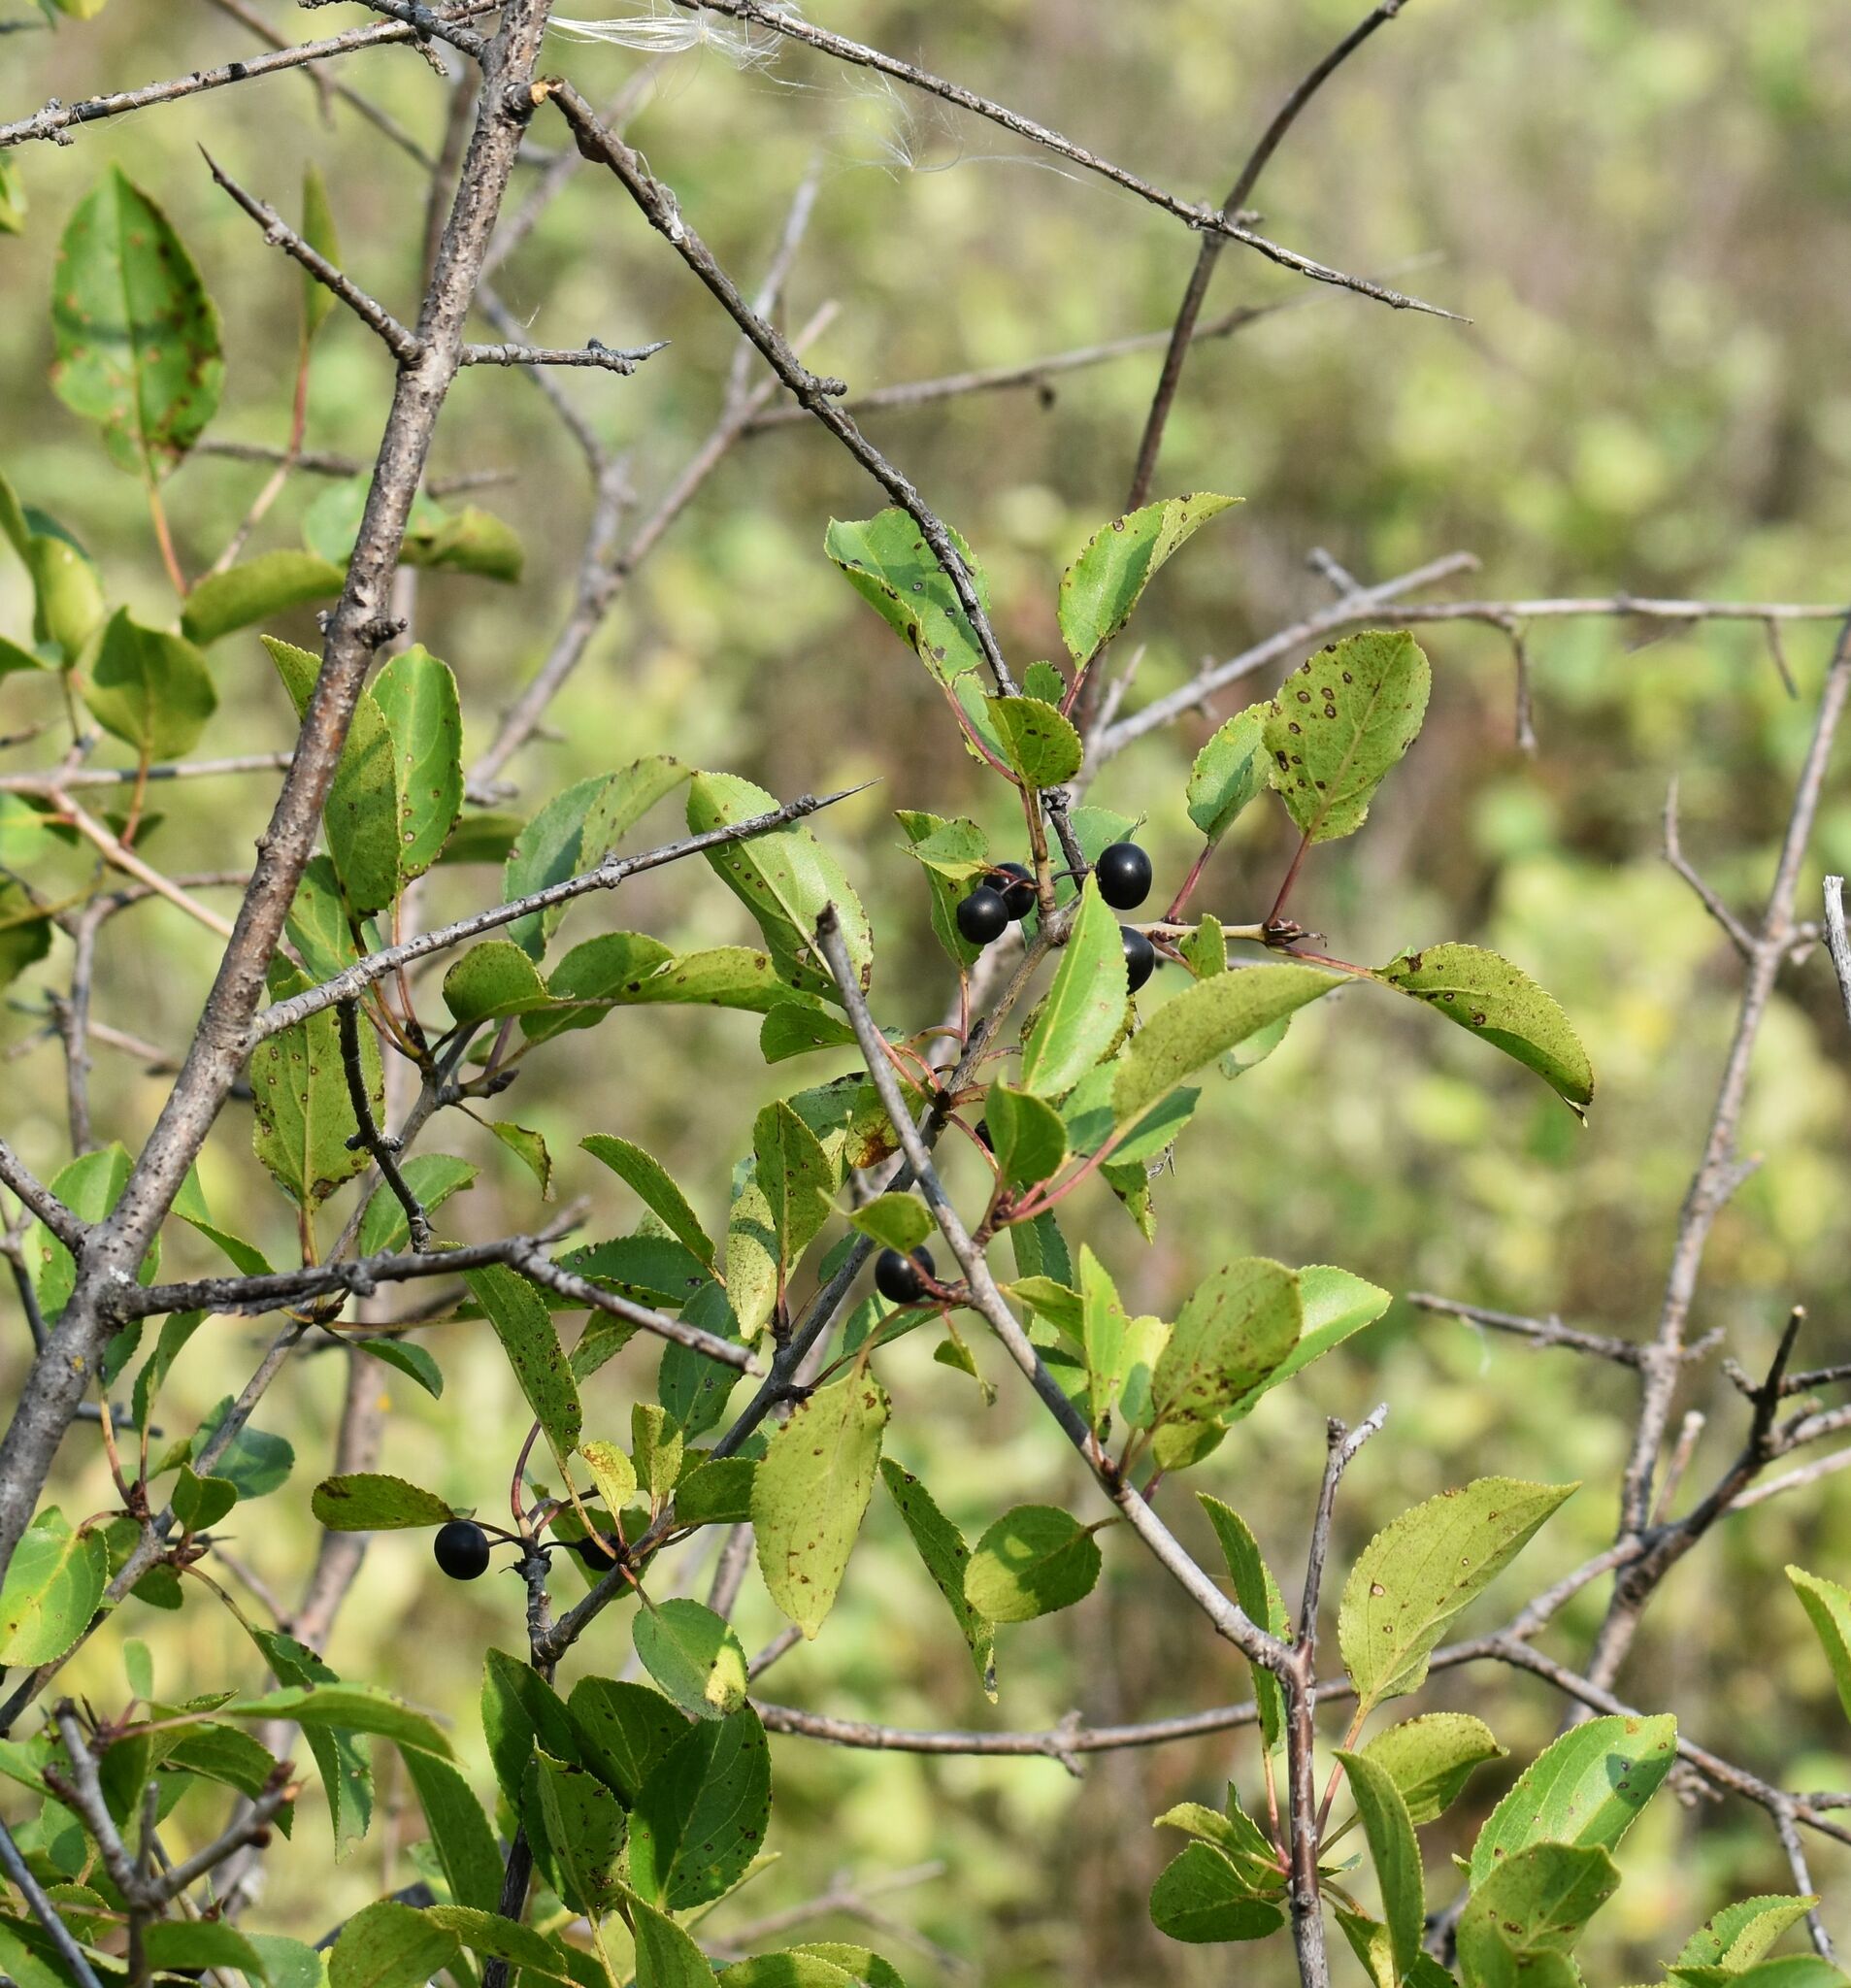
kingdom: Plantae
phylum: Tracheophyta
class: Magnoliopsida
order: Rosales
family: Rhamnaceae
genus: Rhamnus
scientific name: Rhamnus cathartica
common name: Common buckthorn
